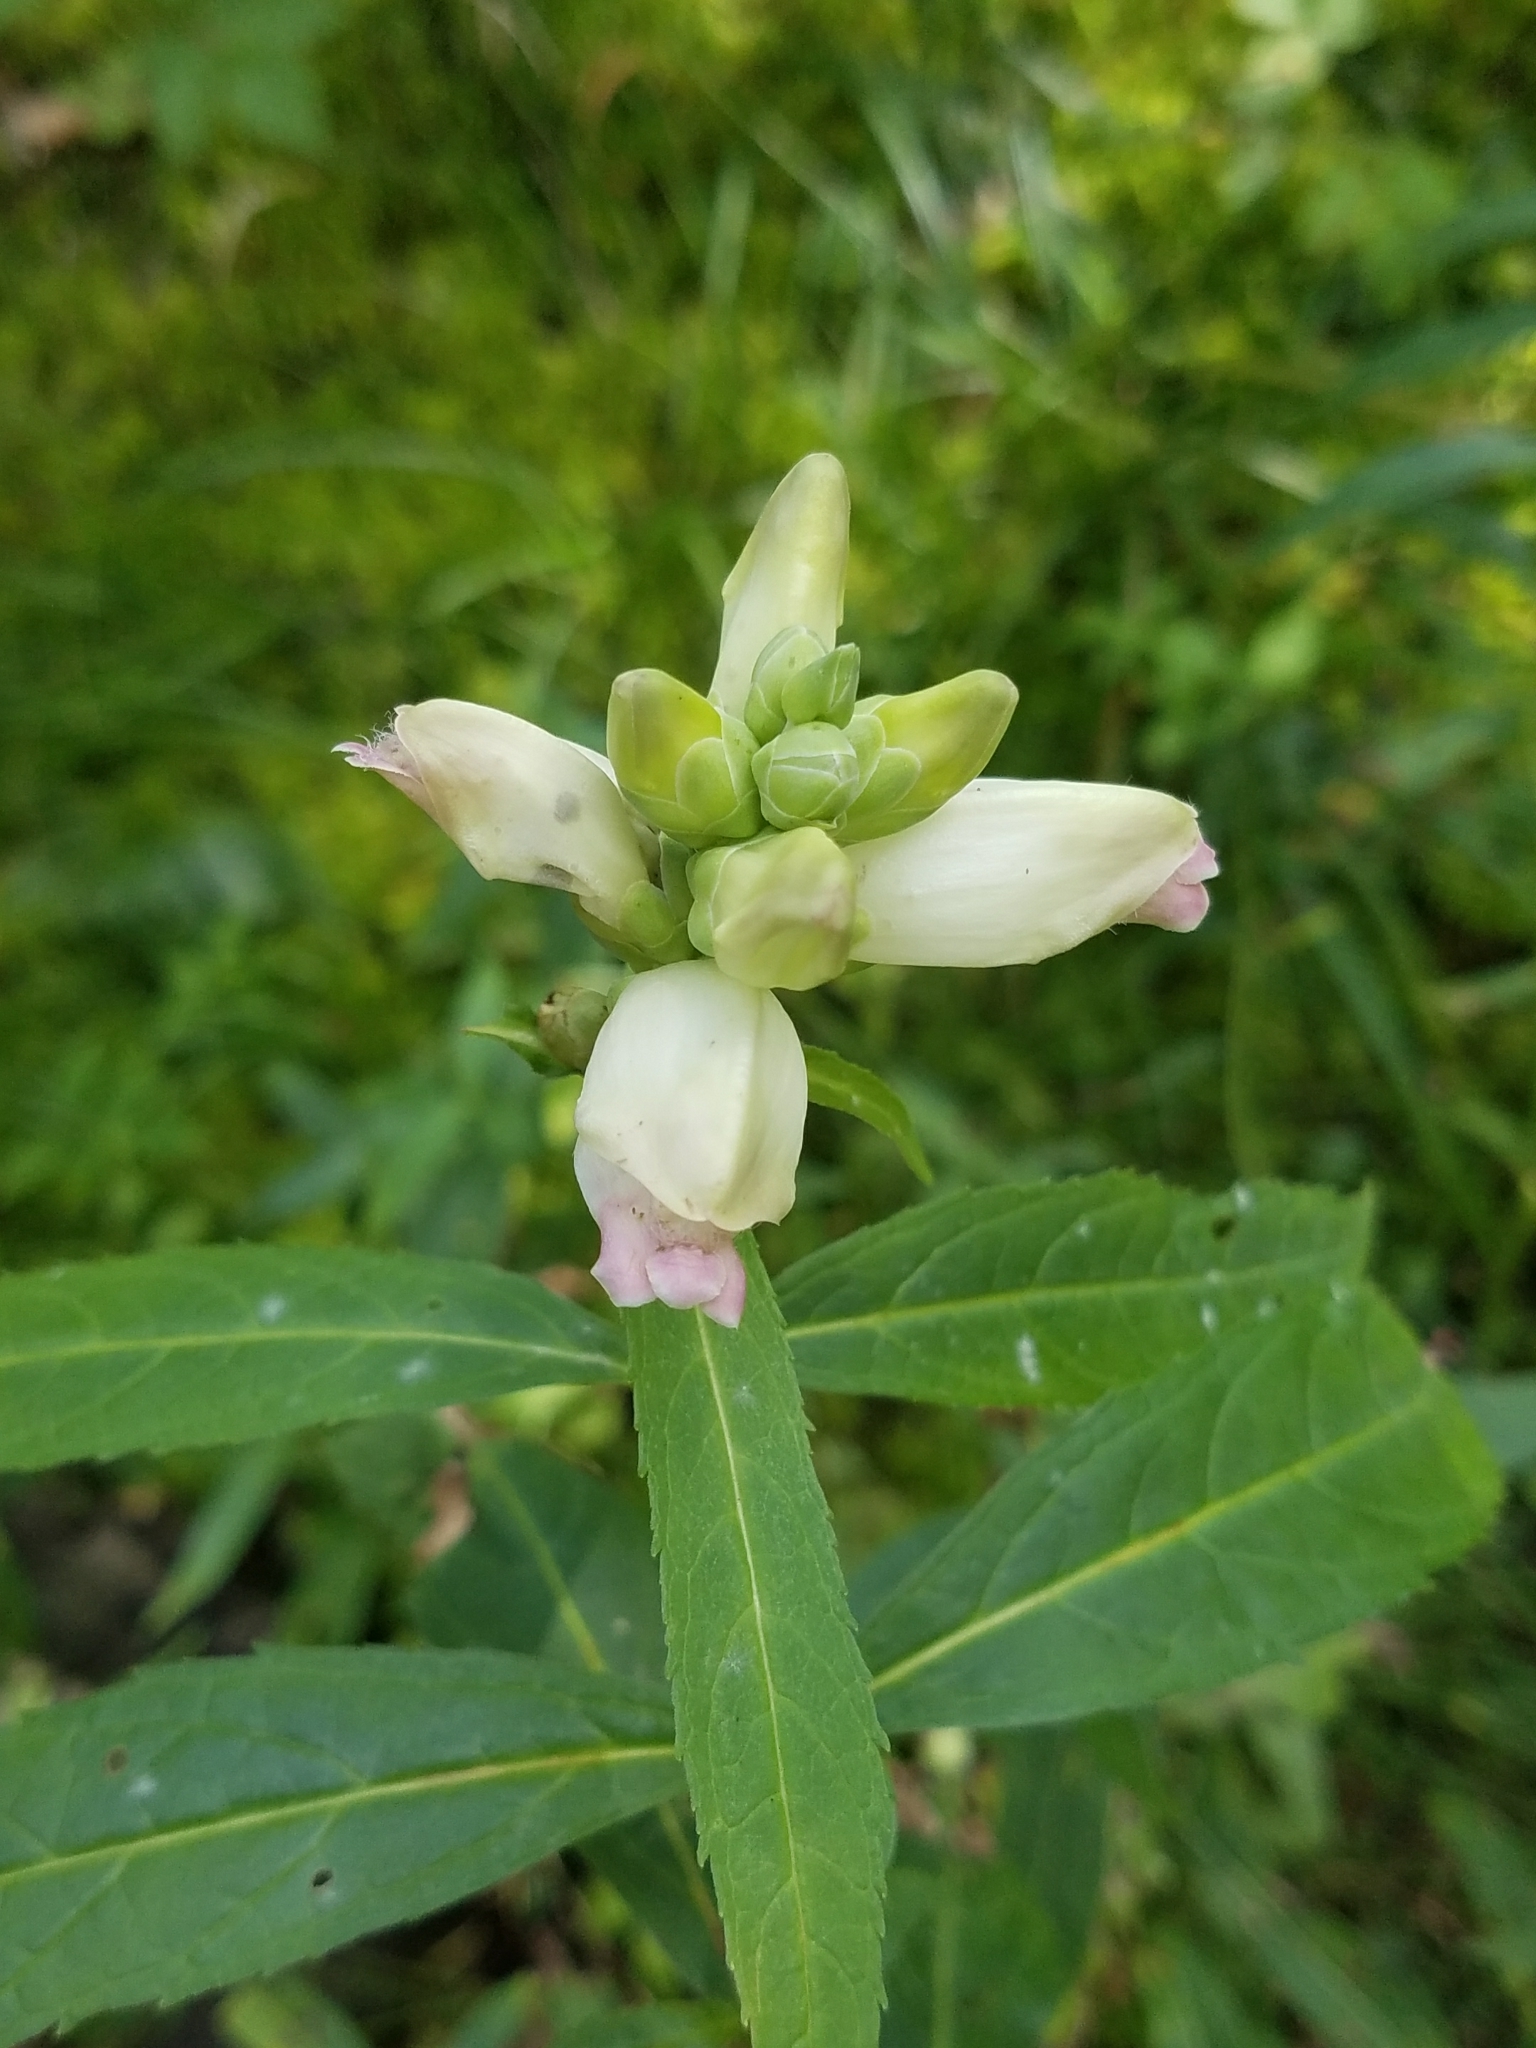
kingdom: Plantae
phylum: Tracheophyta
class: Magnoliopsida
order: Lamiales
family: Plantaginaceae
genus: Chelone
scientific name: Chelone glabra
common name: Snakehead
